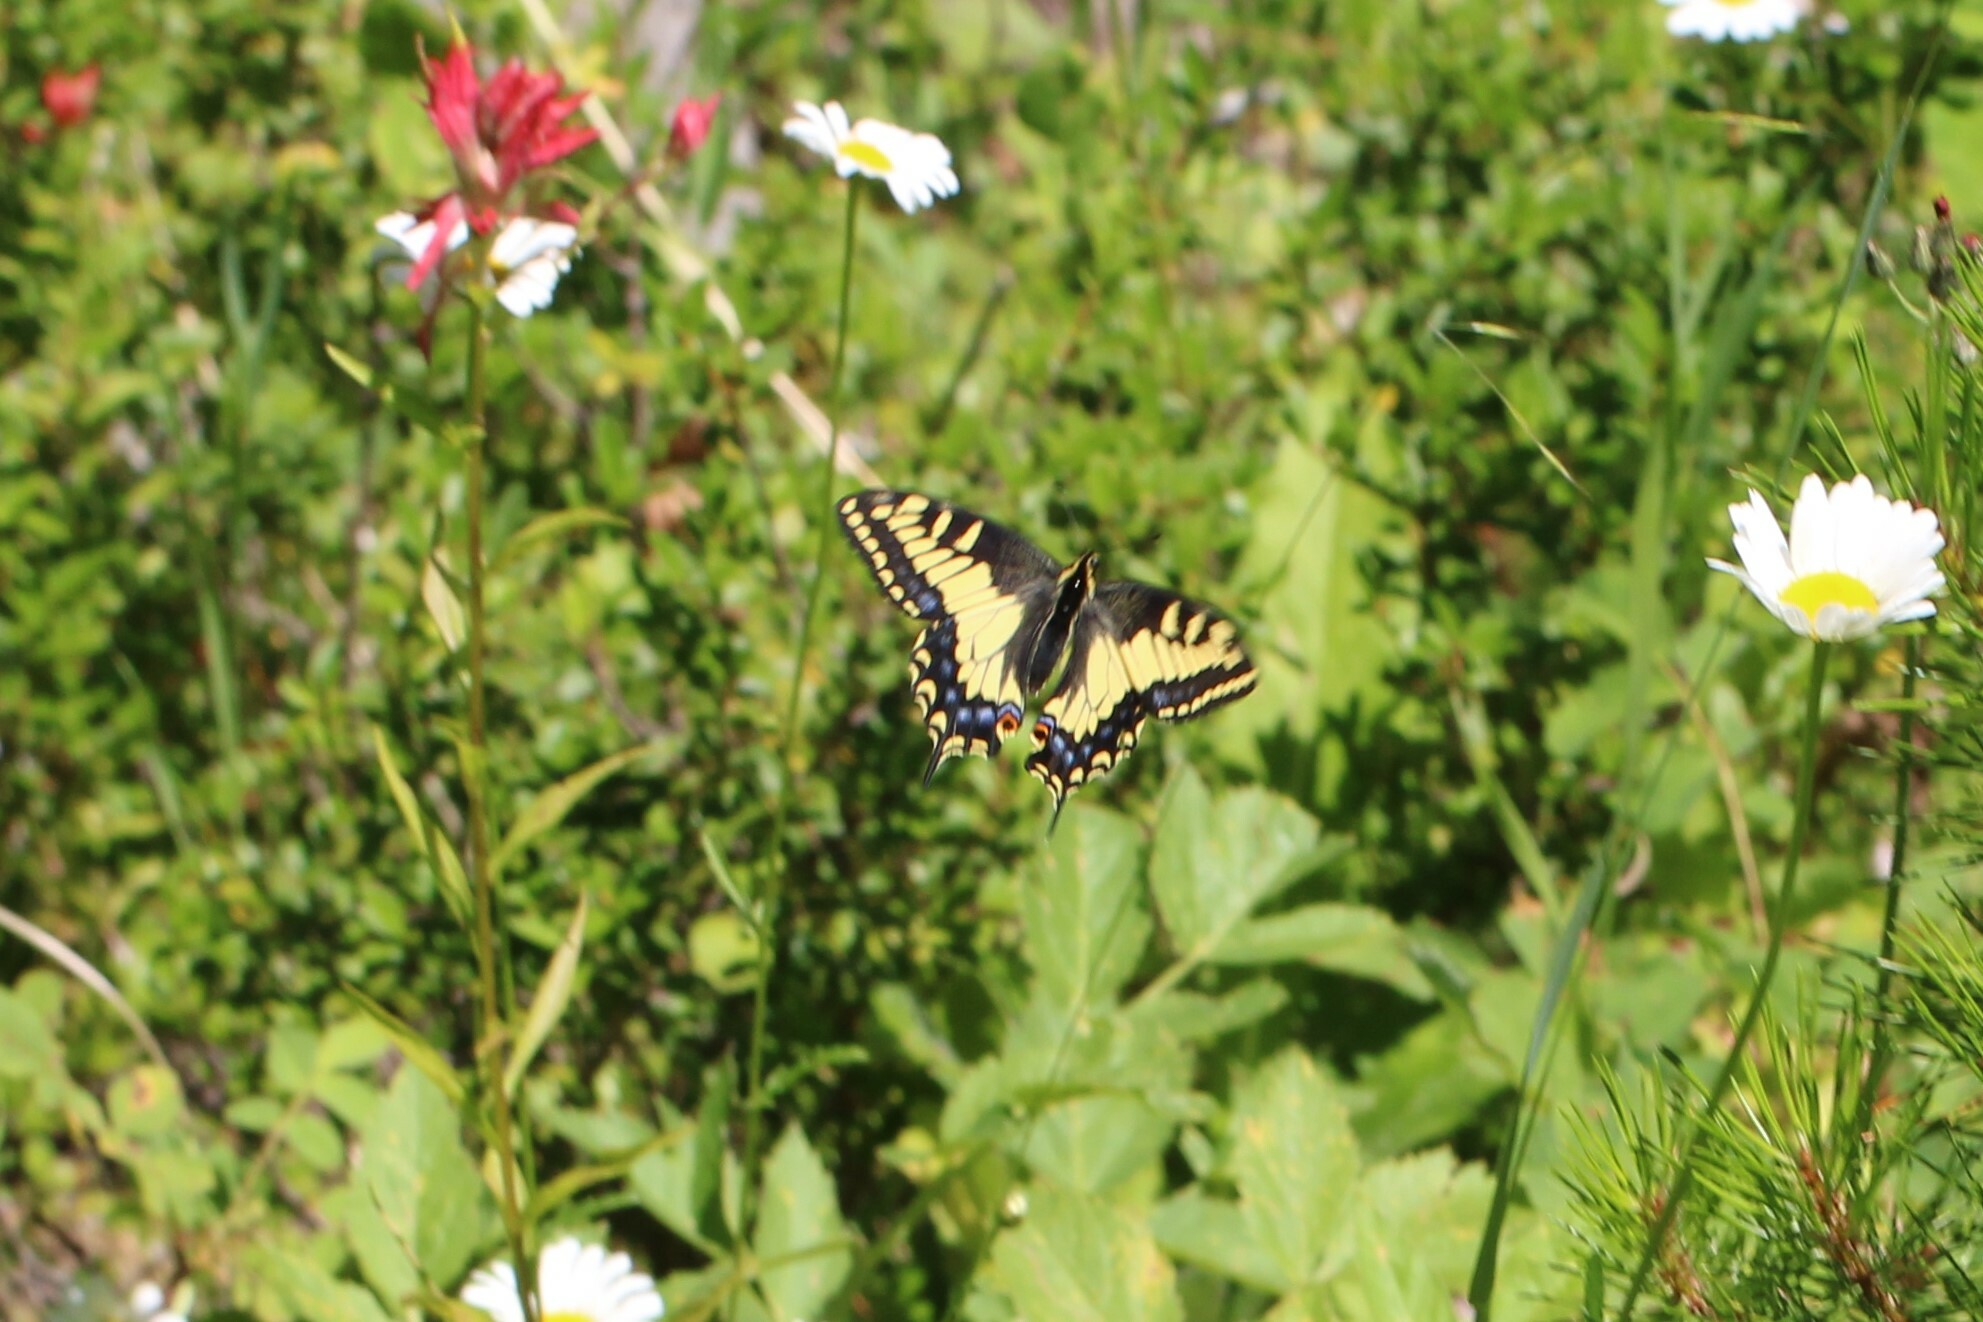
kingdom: Animalia
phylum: Arthropoda
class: Insecta
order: Lepidoptera
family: Papilionidae
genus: Papilio
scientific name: Papilio zelicaon
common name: Anise swallowtail
